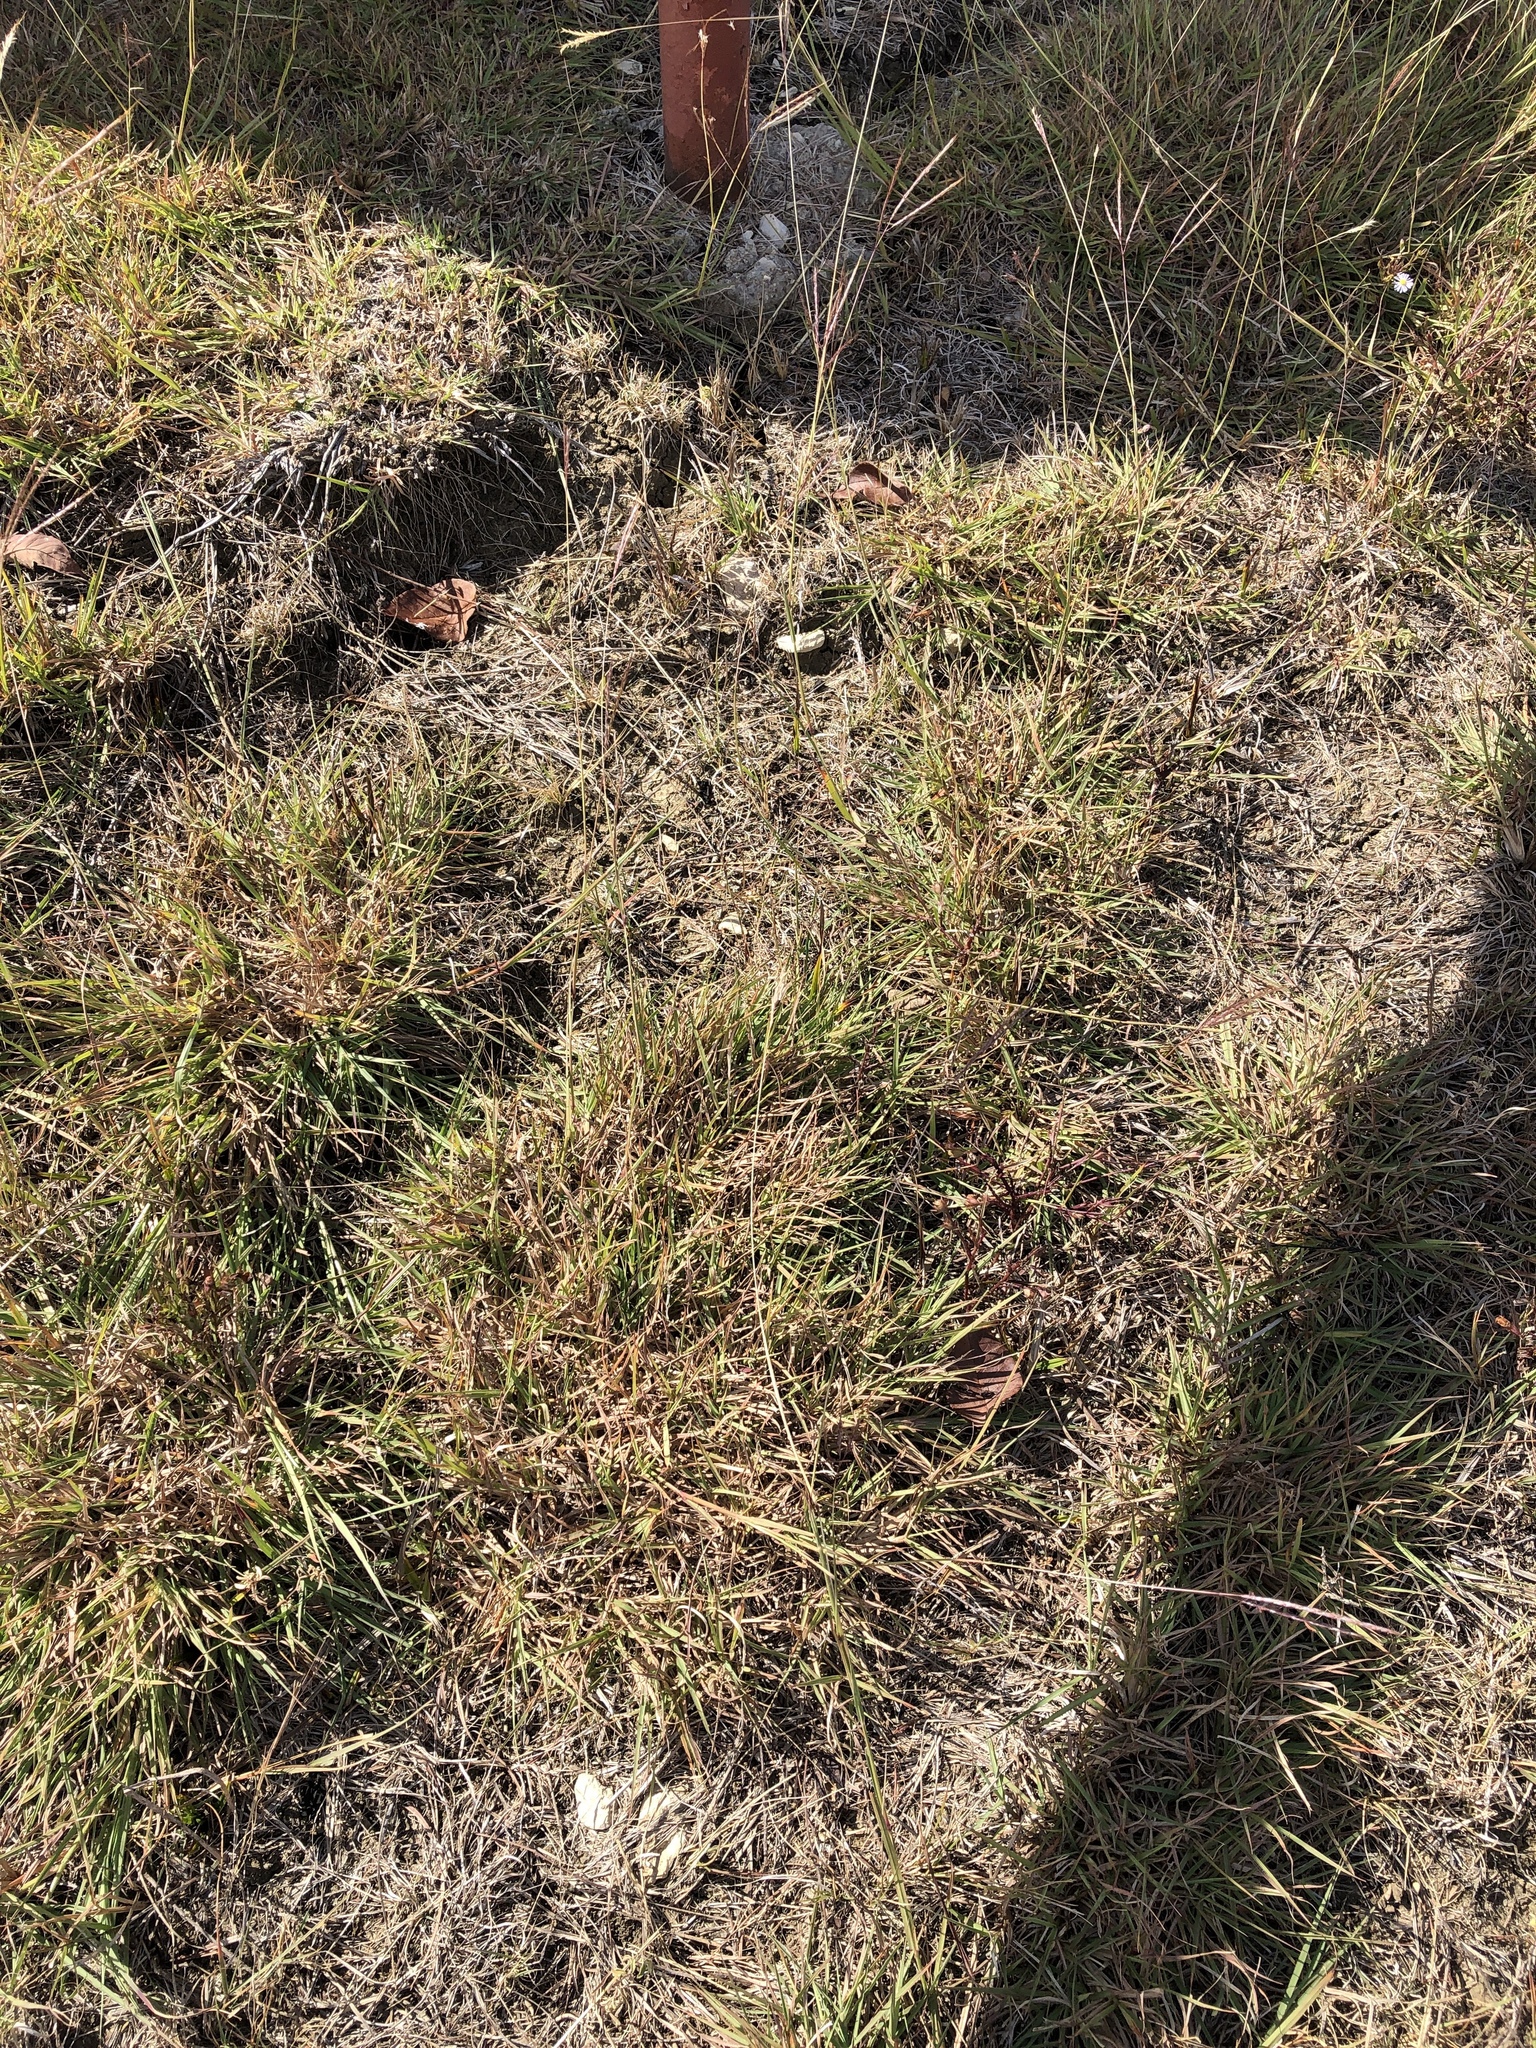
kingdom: Plantae
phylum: Tracheophyta
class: Liliopsida
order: Poales
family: Poaceae
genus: Bothriochloa
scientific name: Bothriochloa ischaemum
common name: Yellow bluestem
